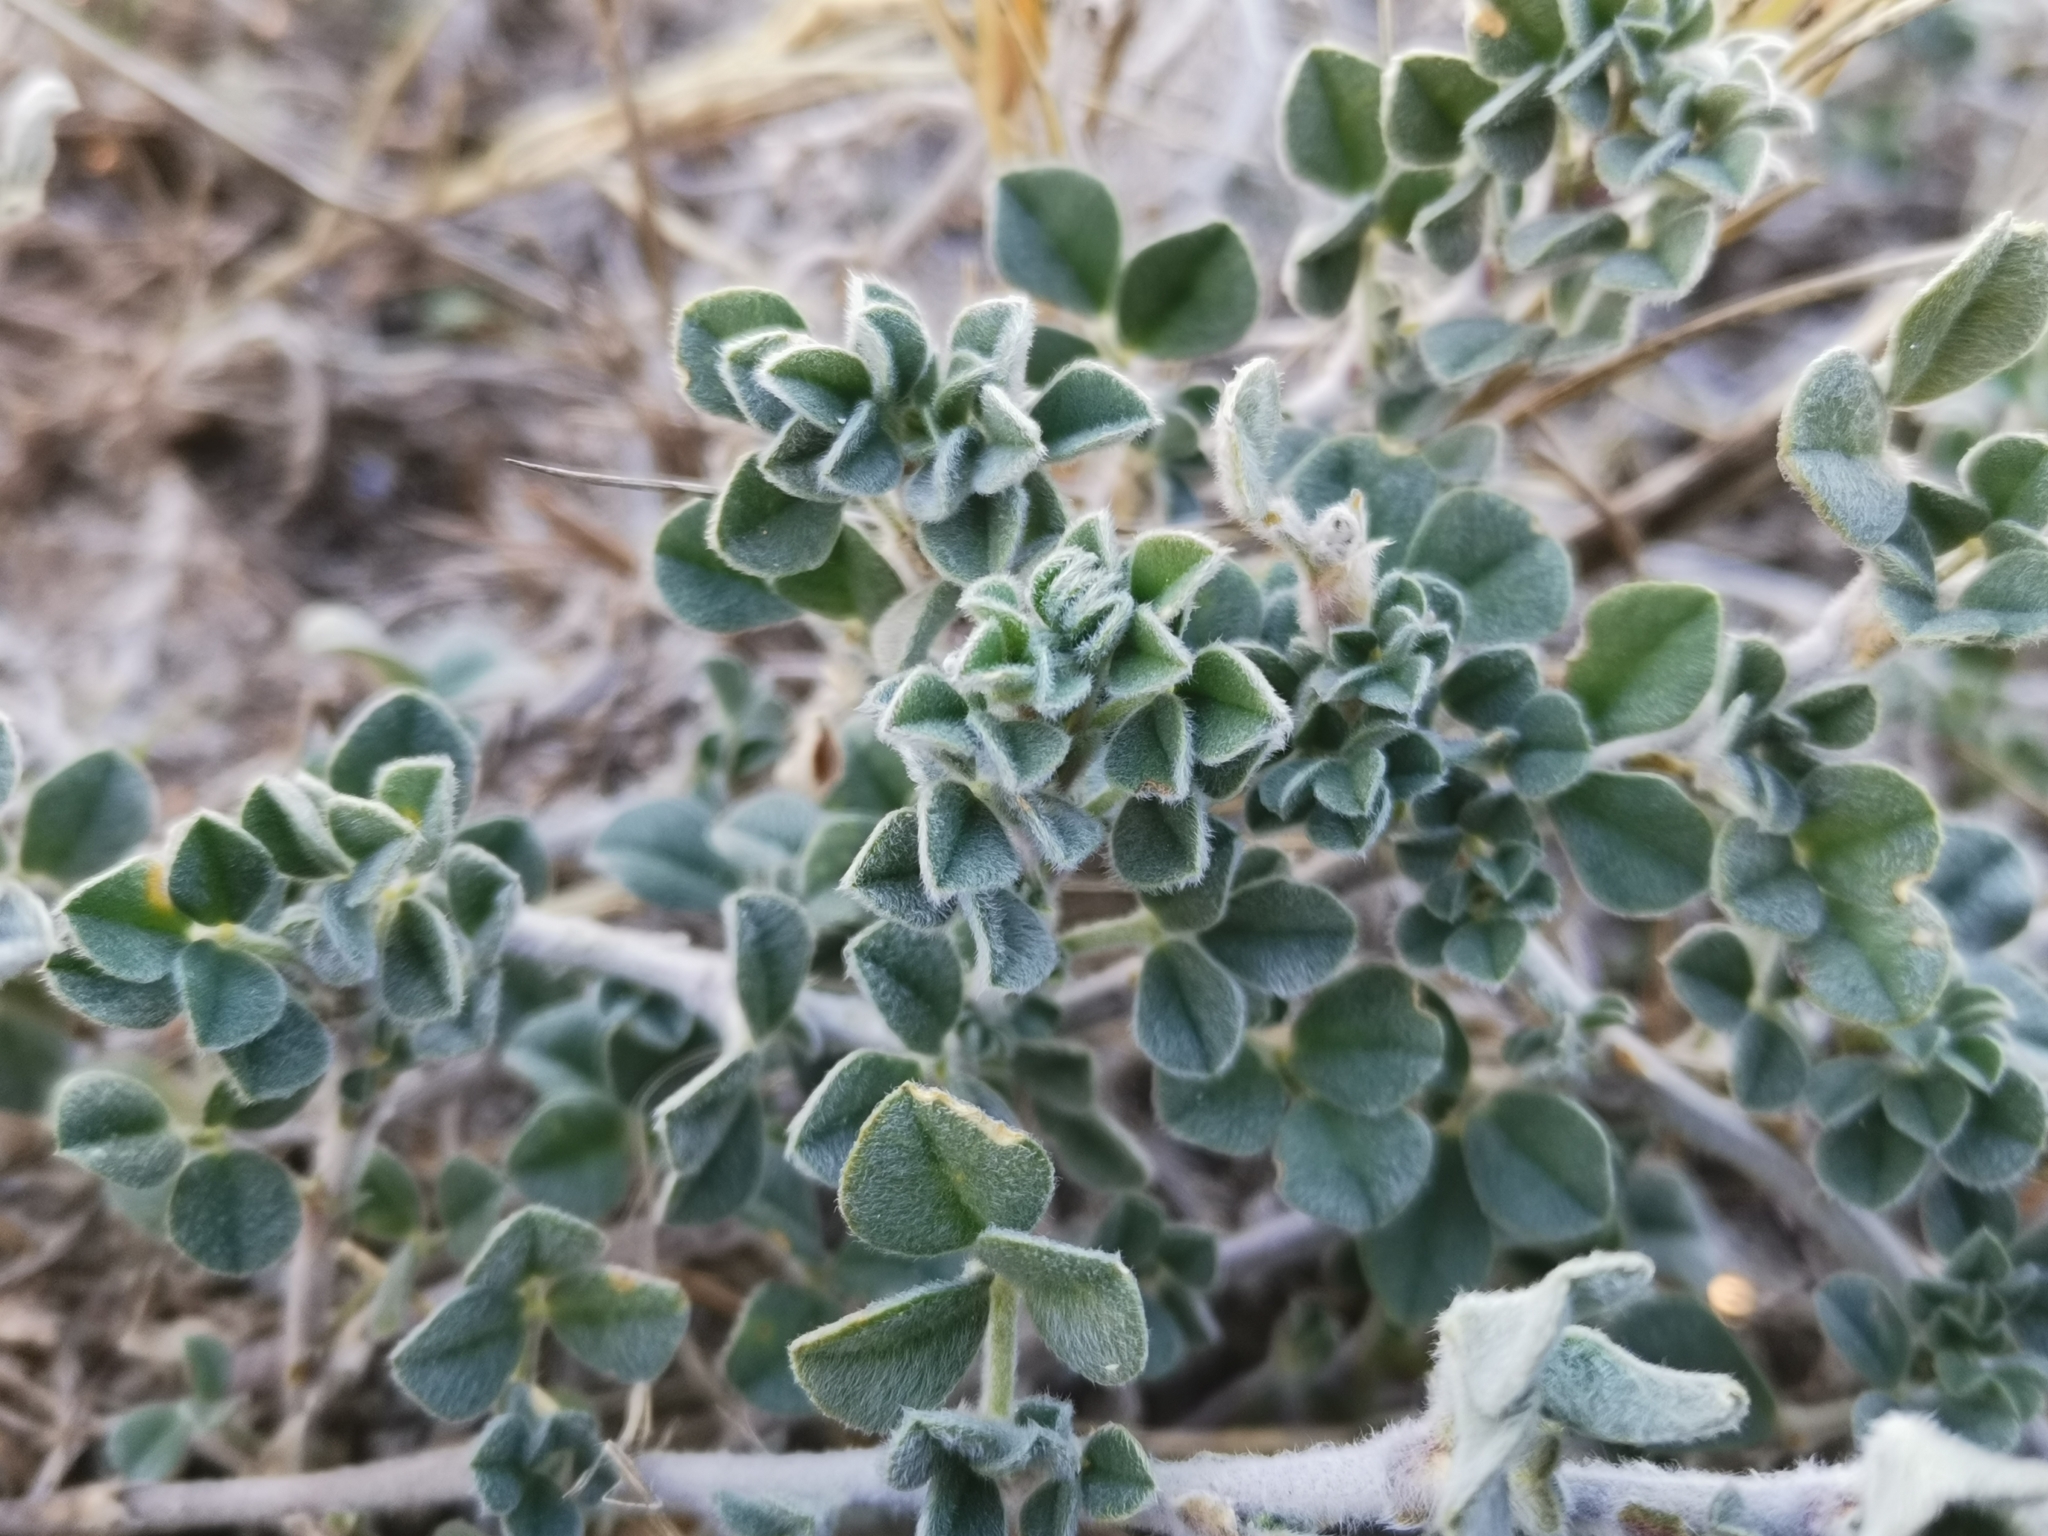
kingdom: Plantae
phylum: Tracheophyta
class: Magnoliopsida
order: Fabales
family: Fabaceae
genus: Medicago
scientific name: Medicago marina
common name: Sea medick
